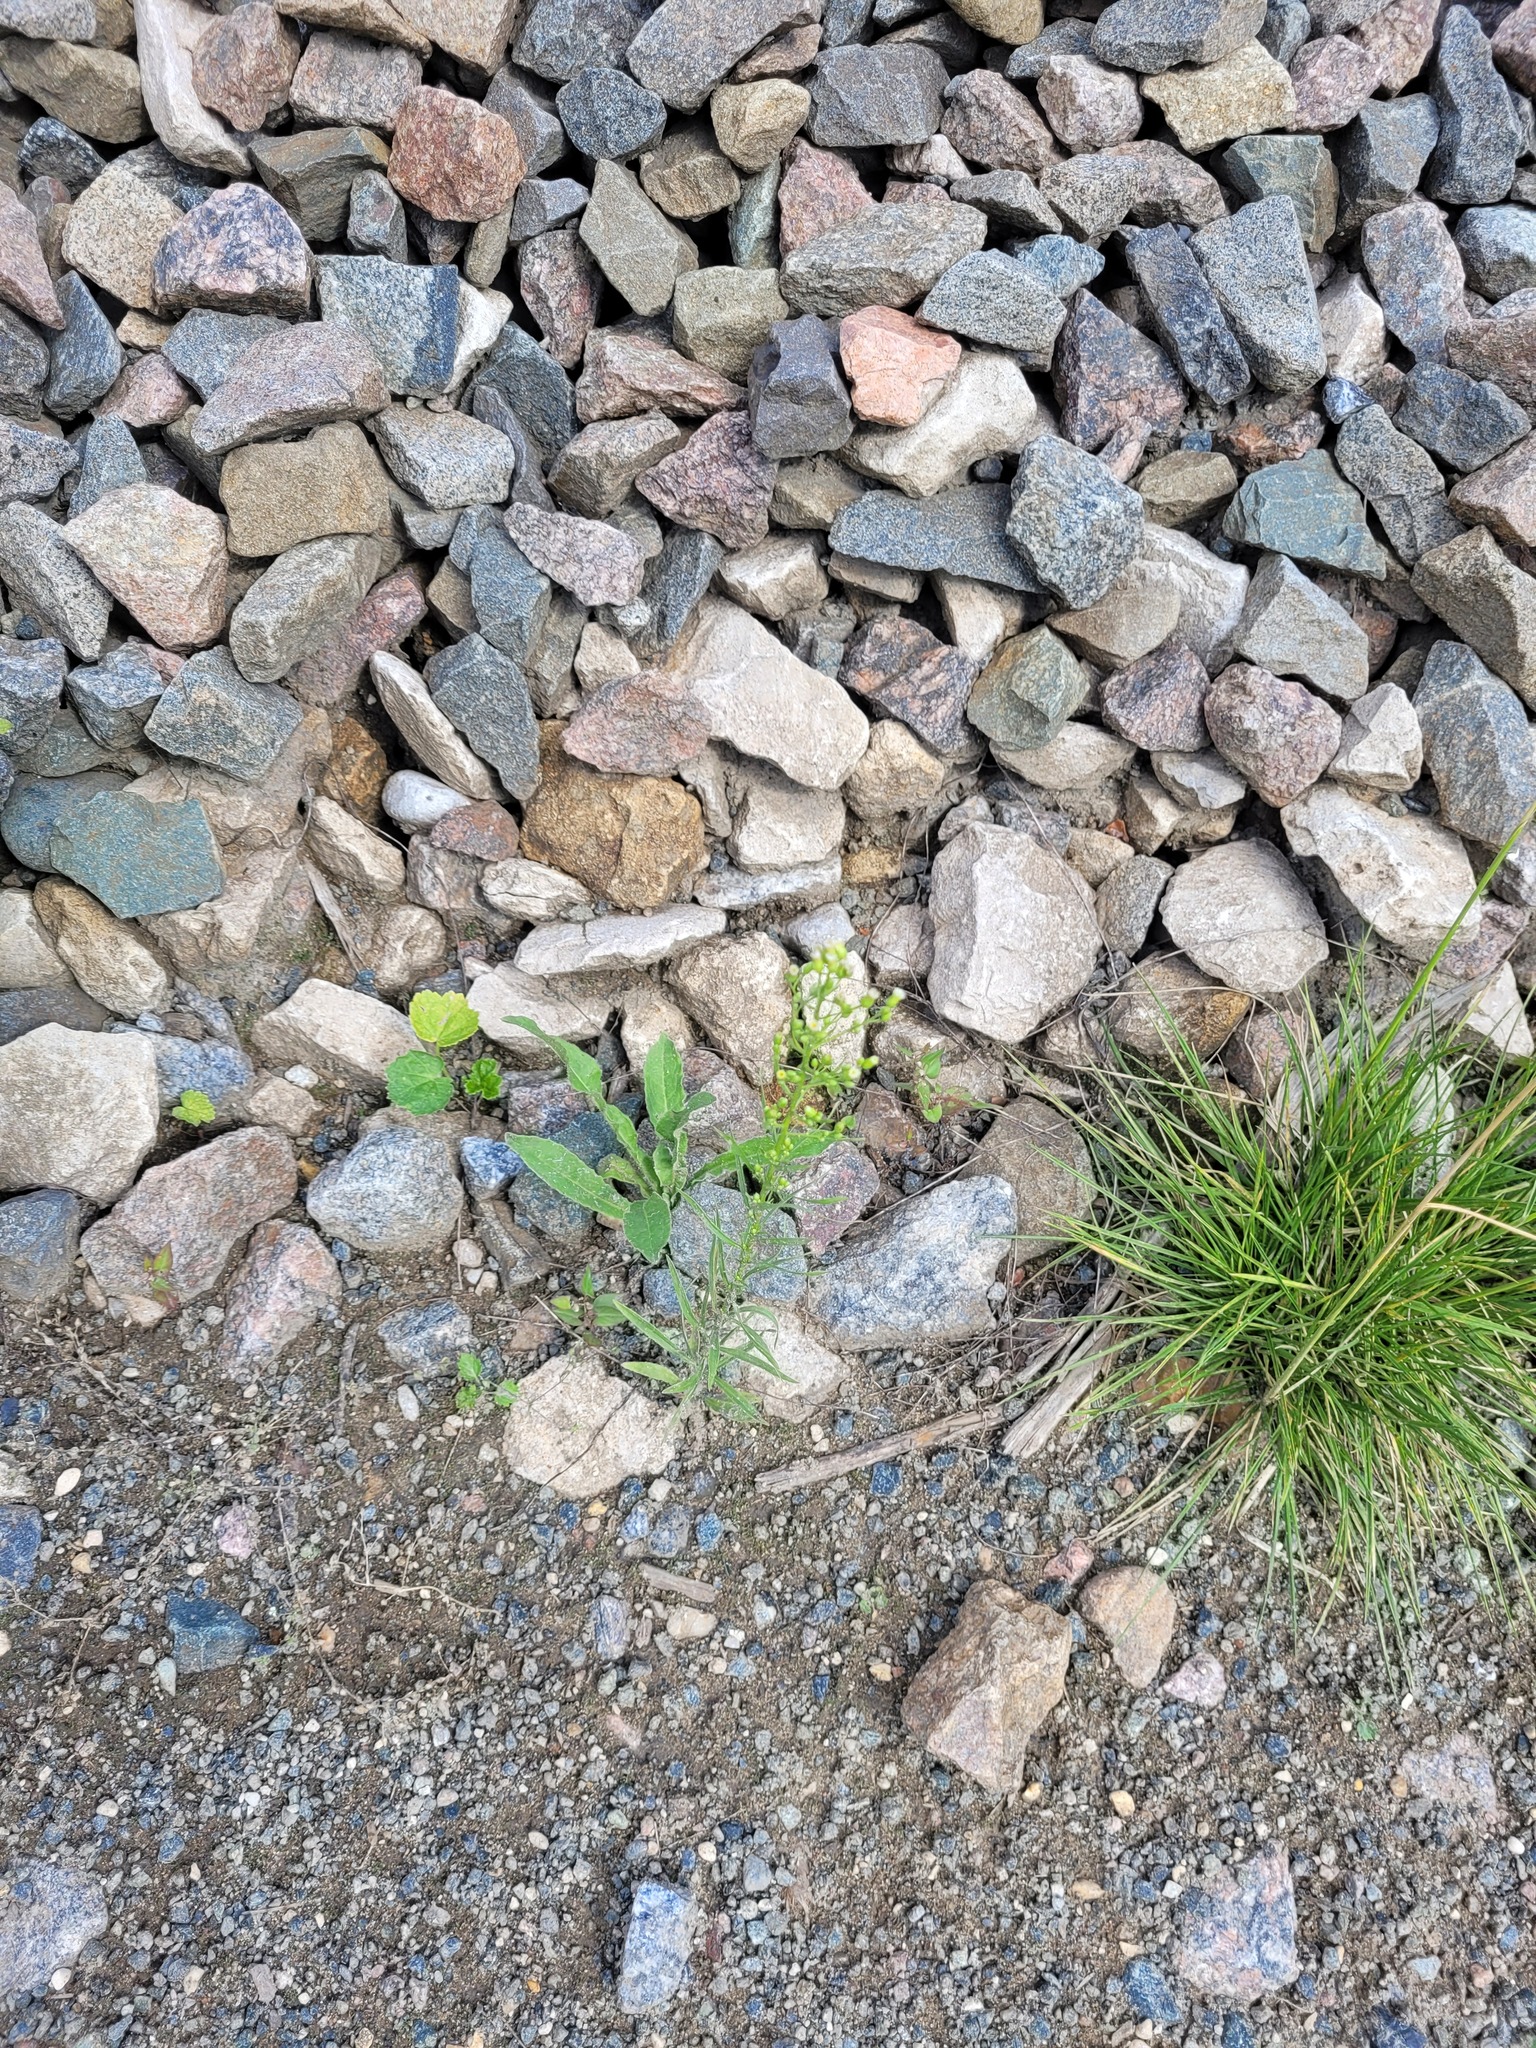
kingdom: Plantae
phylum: Tracheophyta
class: Magnoliopsida
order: Asterales
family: Asteraceae
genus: Erigeron
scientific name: Erigeron canadensis
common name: Canadian fleabane
